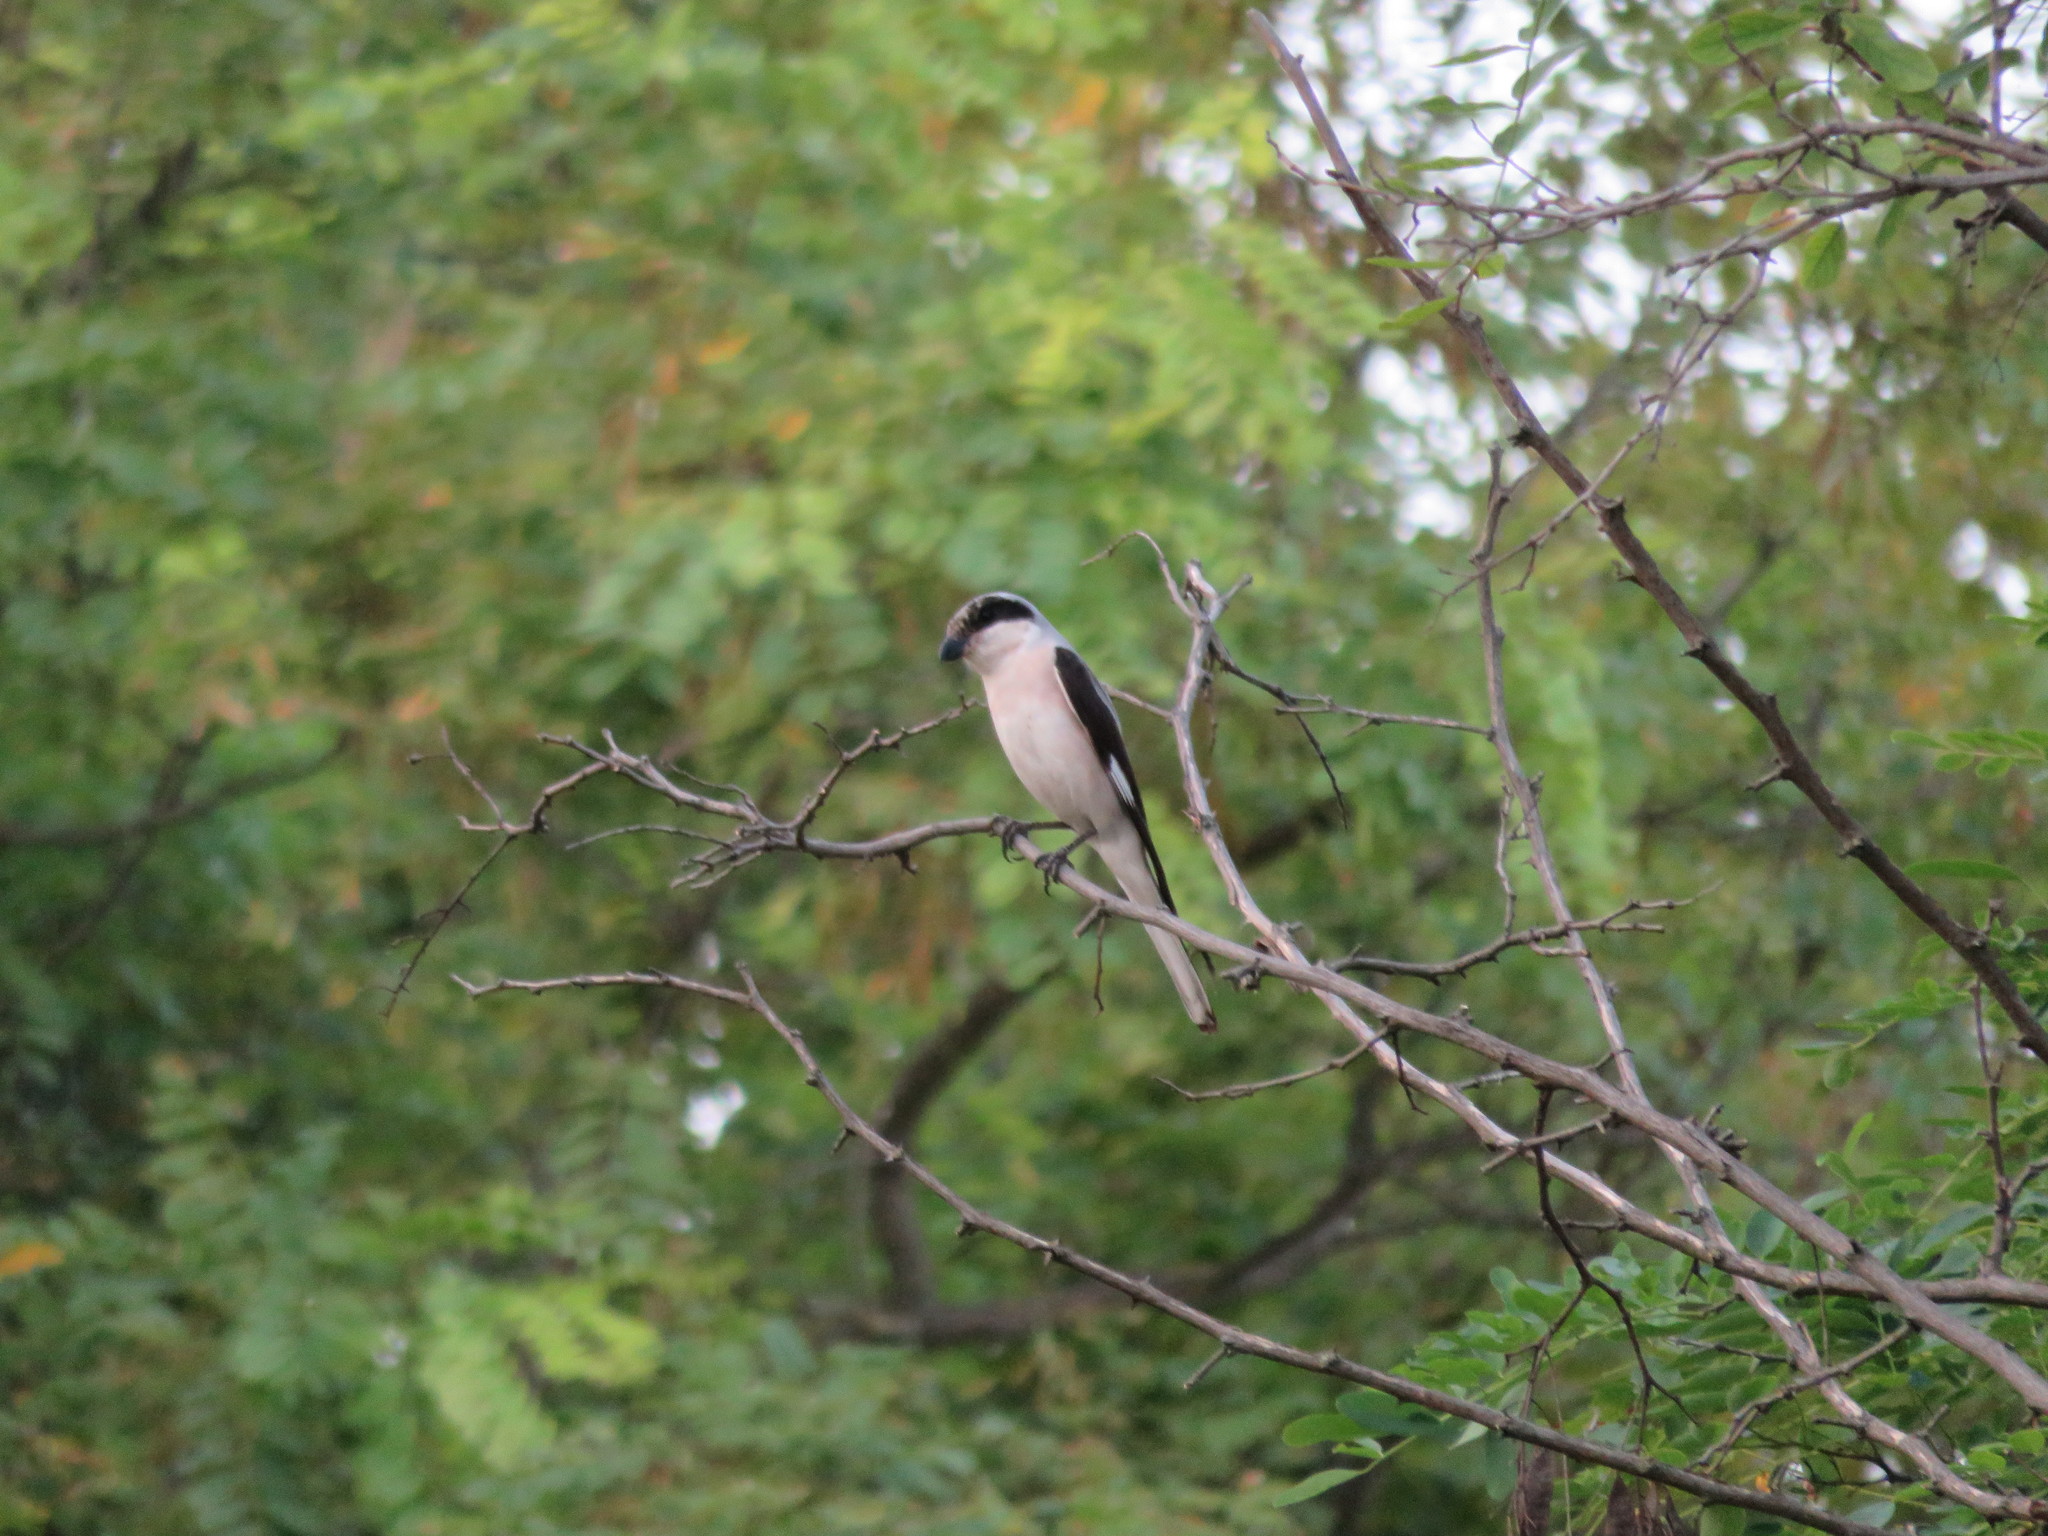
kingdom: Animalia
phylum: Chordata
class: Aves
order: Passeriformes
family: Laniidae
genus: Lanius
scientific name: Lanius minor
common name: Lesser grey shrike
